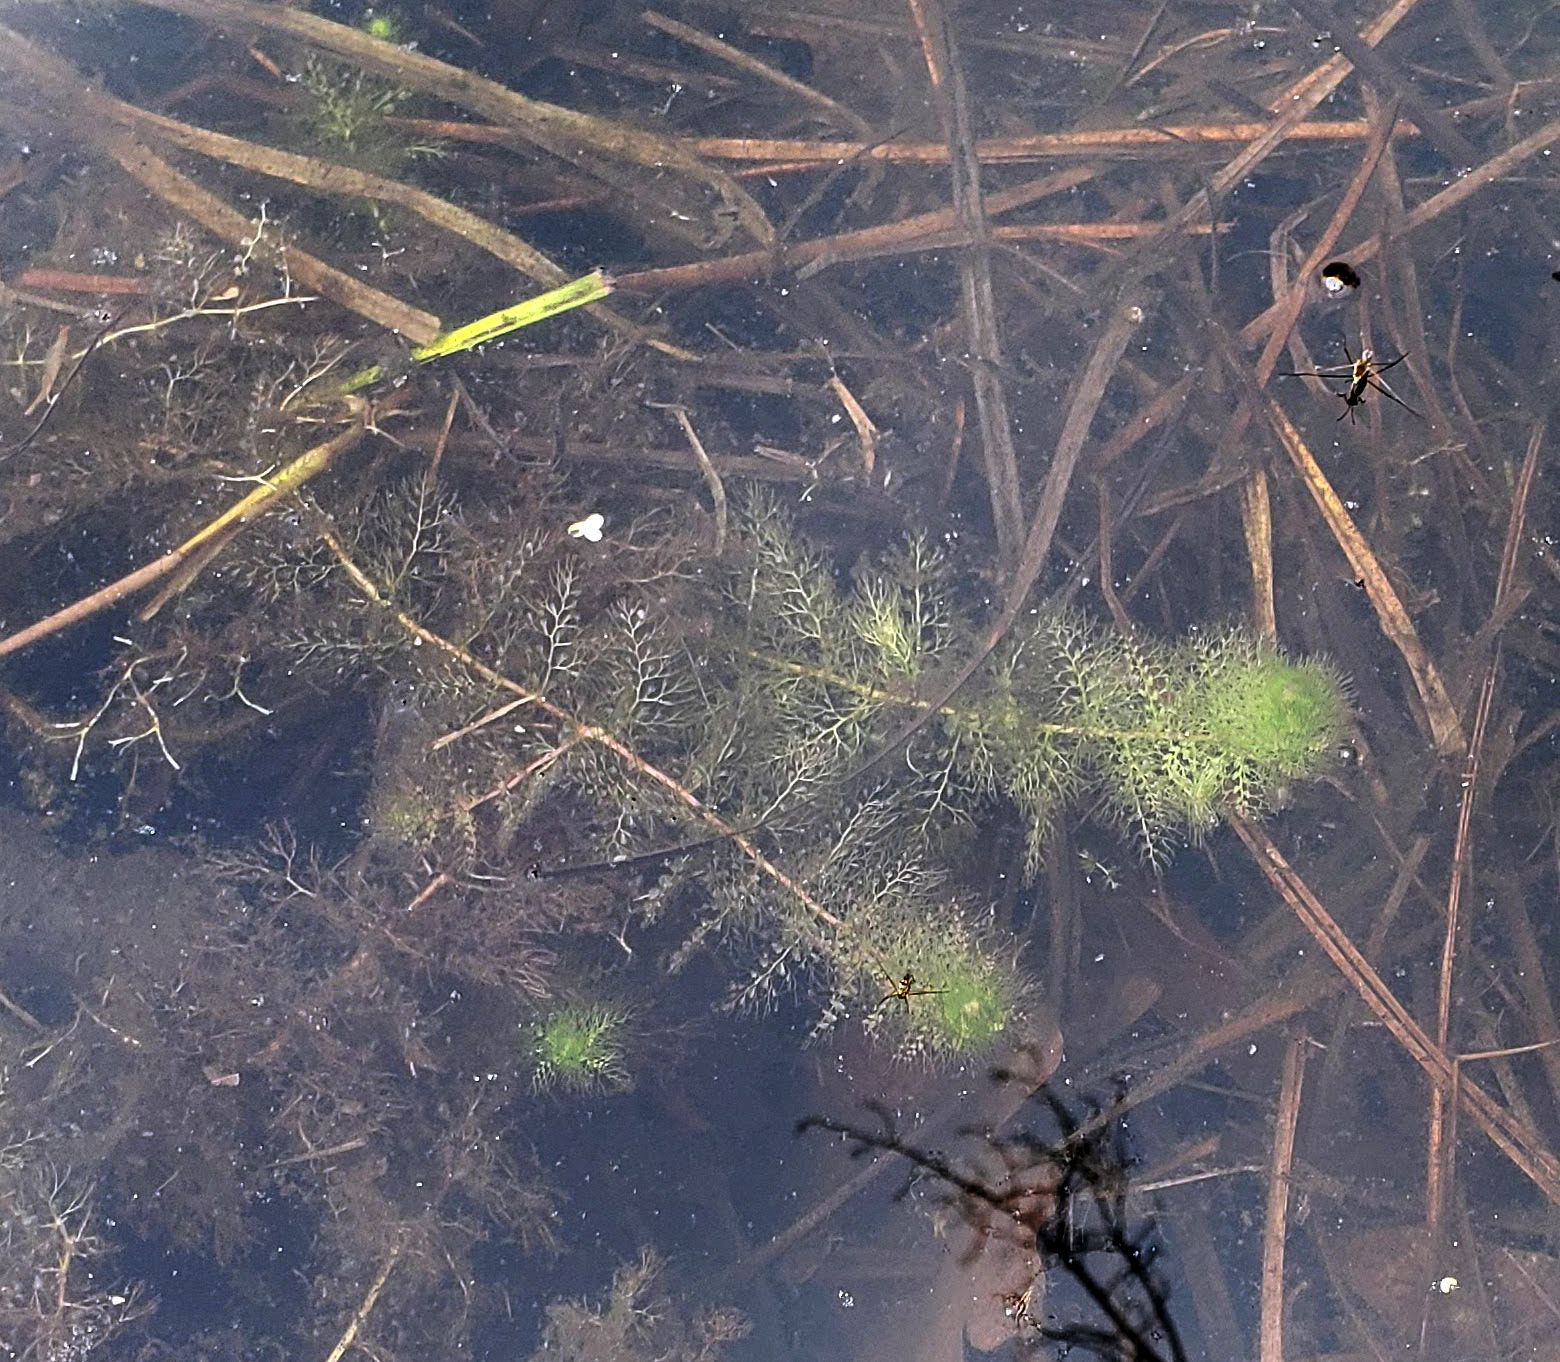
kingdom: Plantae
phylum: Tracheophyta
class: Magnoliopsida
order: Lamiales
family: Lentibulariaceae
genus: Utricularia
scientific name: Utricularia macrorhiza
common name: Common bladderwort
